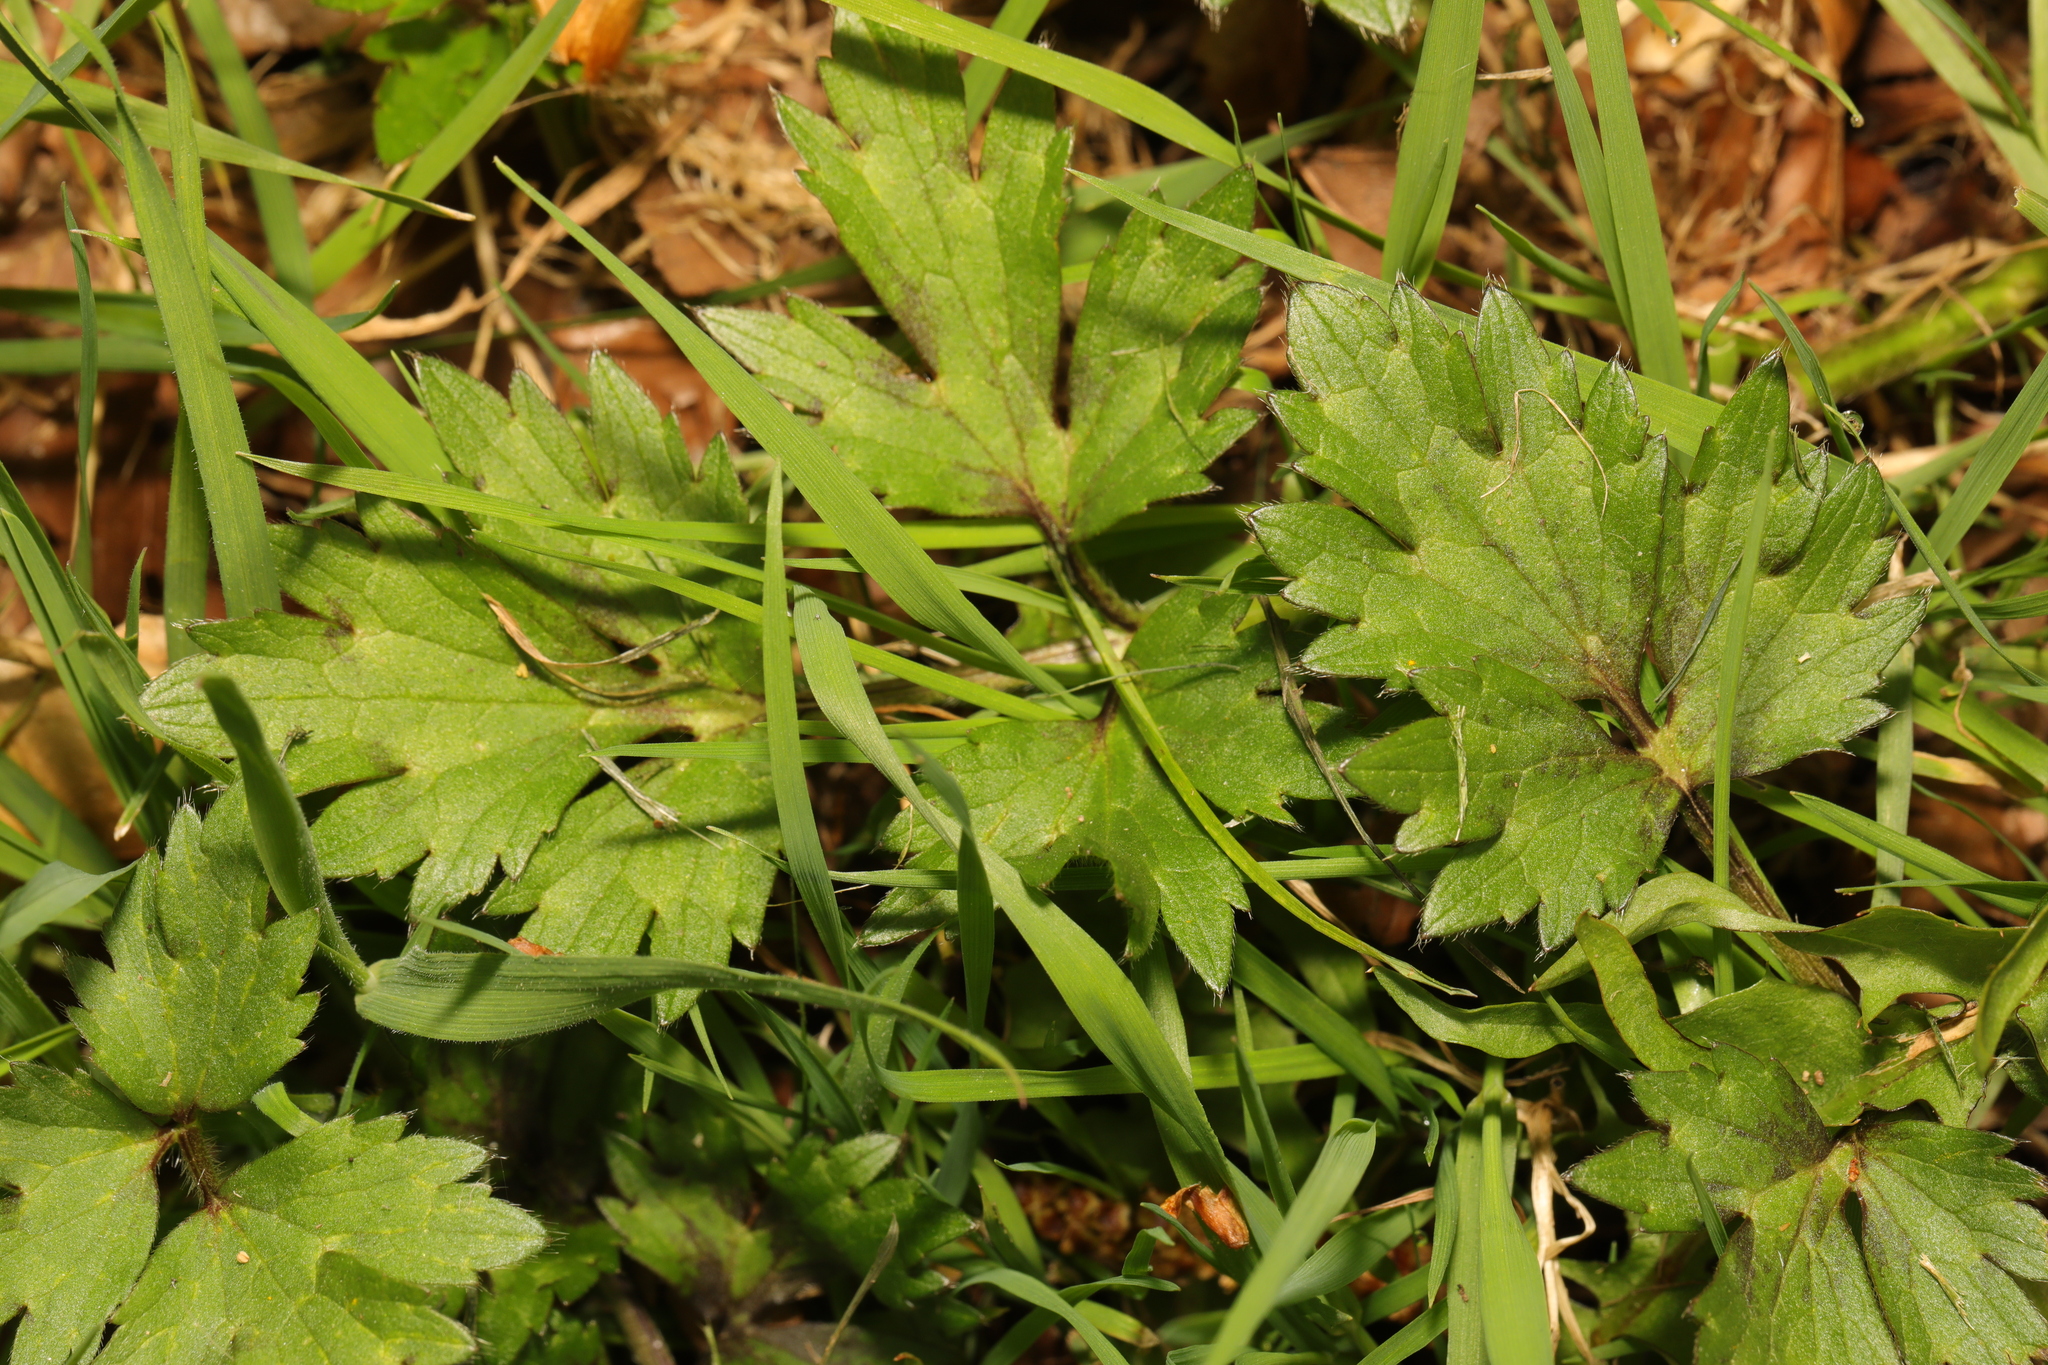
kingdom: Plantae
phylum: Tracheophyta
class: Magnoliopsida
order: Ranunculales
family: Ranunculaceae
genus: Ranunculus
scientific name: Ranunculus repens
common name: Creeping buttercup
